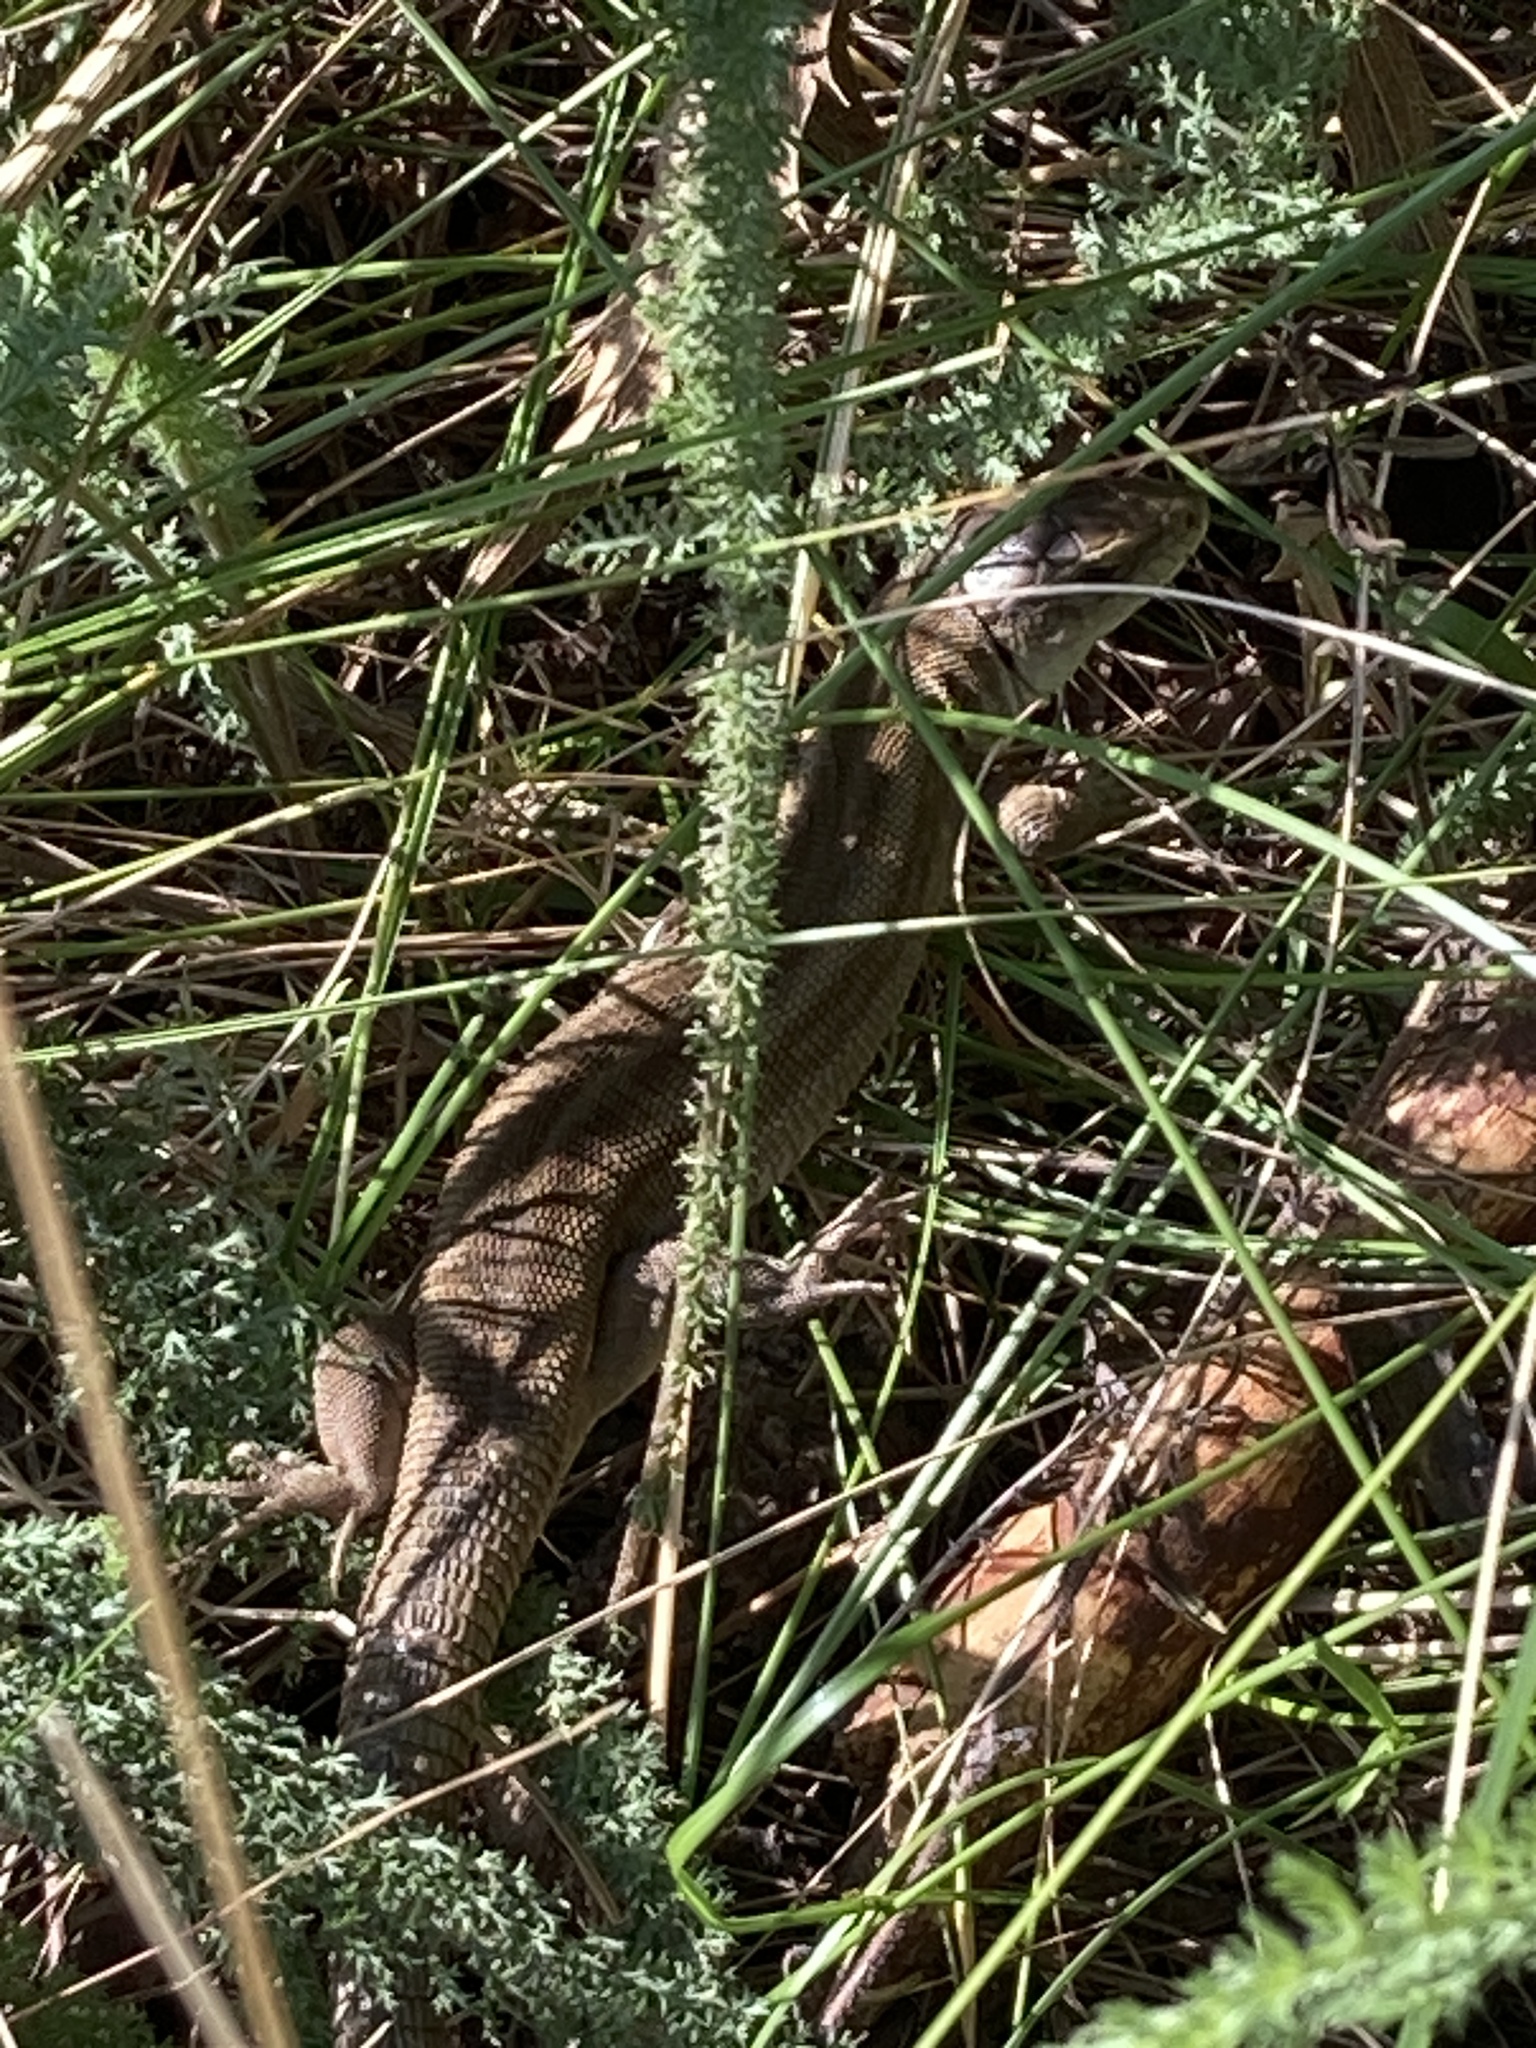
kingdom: Animalia
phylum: Chordata
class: Squamata
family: Lacertidae
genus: Lacerta
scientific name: Lacerta agilis
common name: Sand lizard
